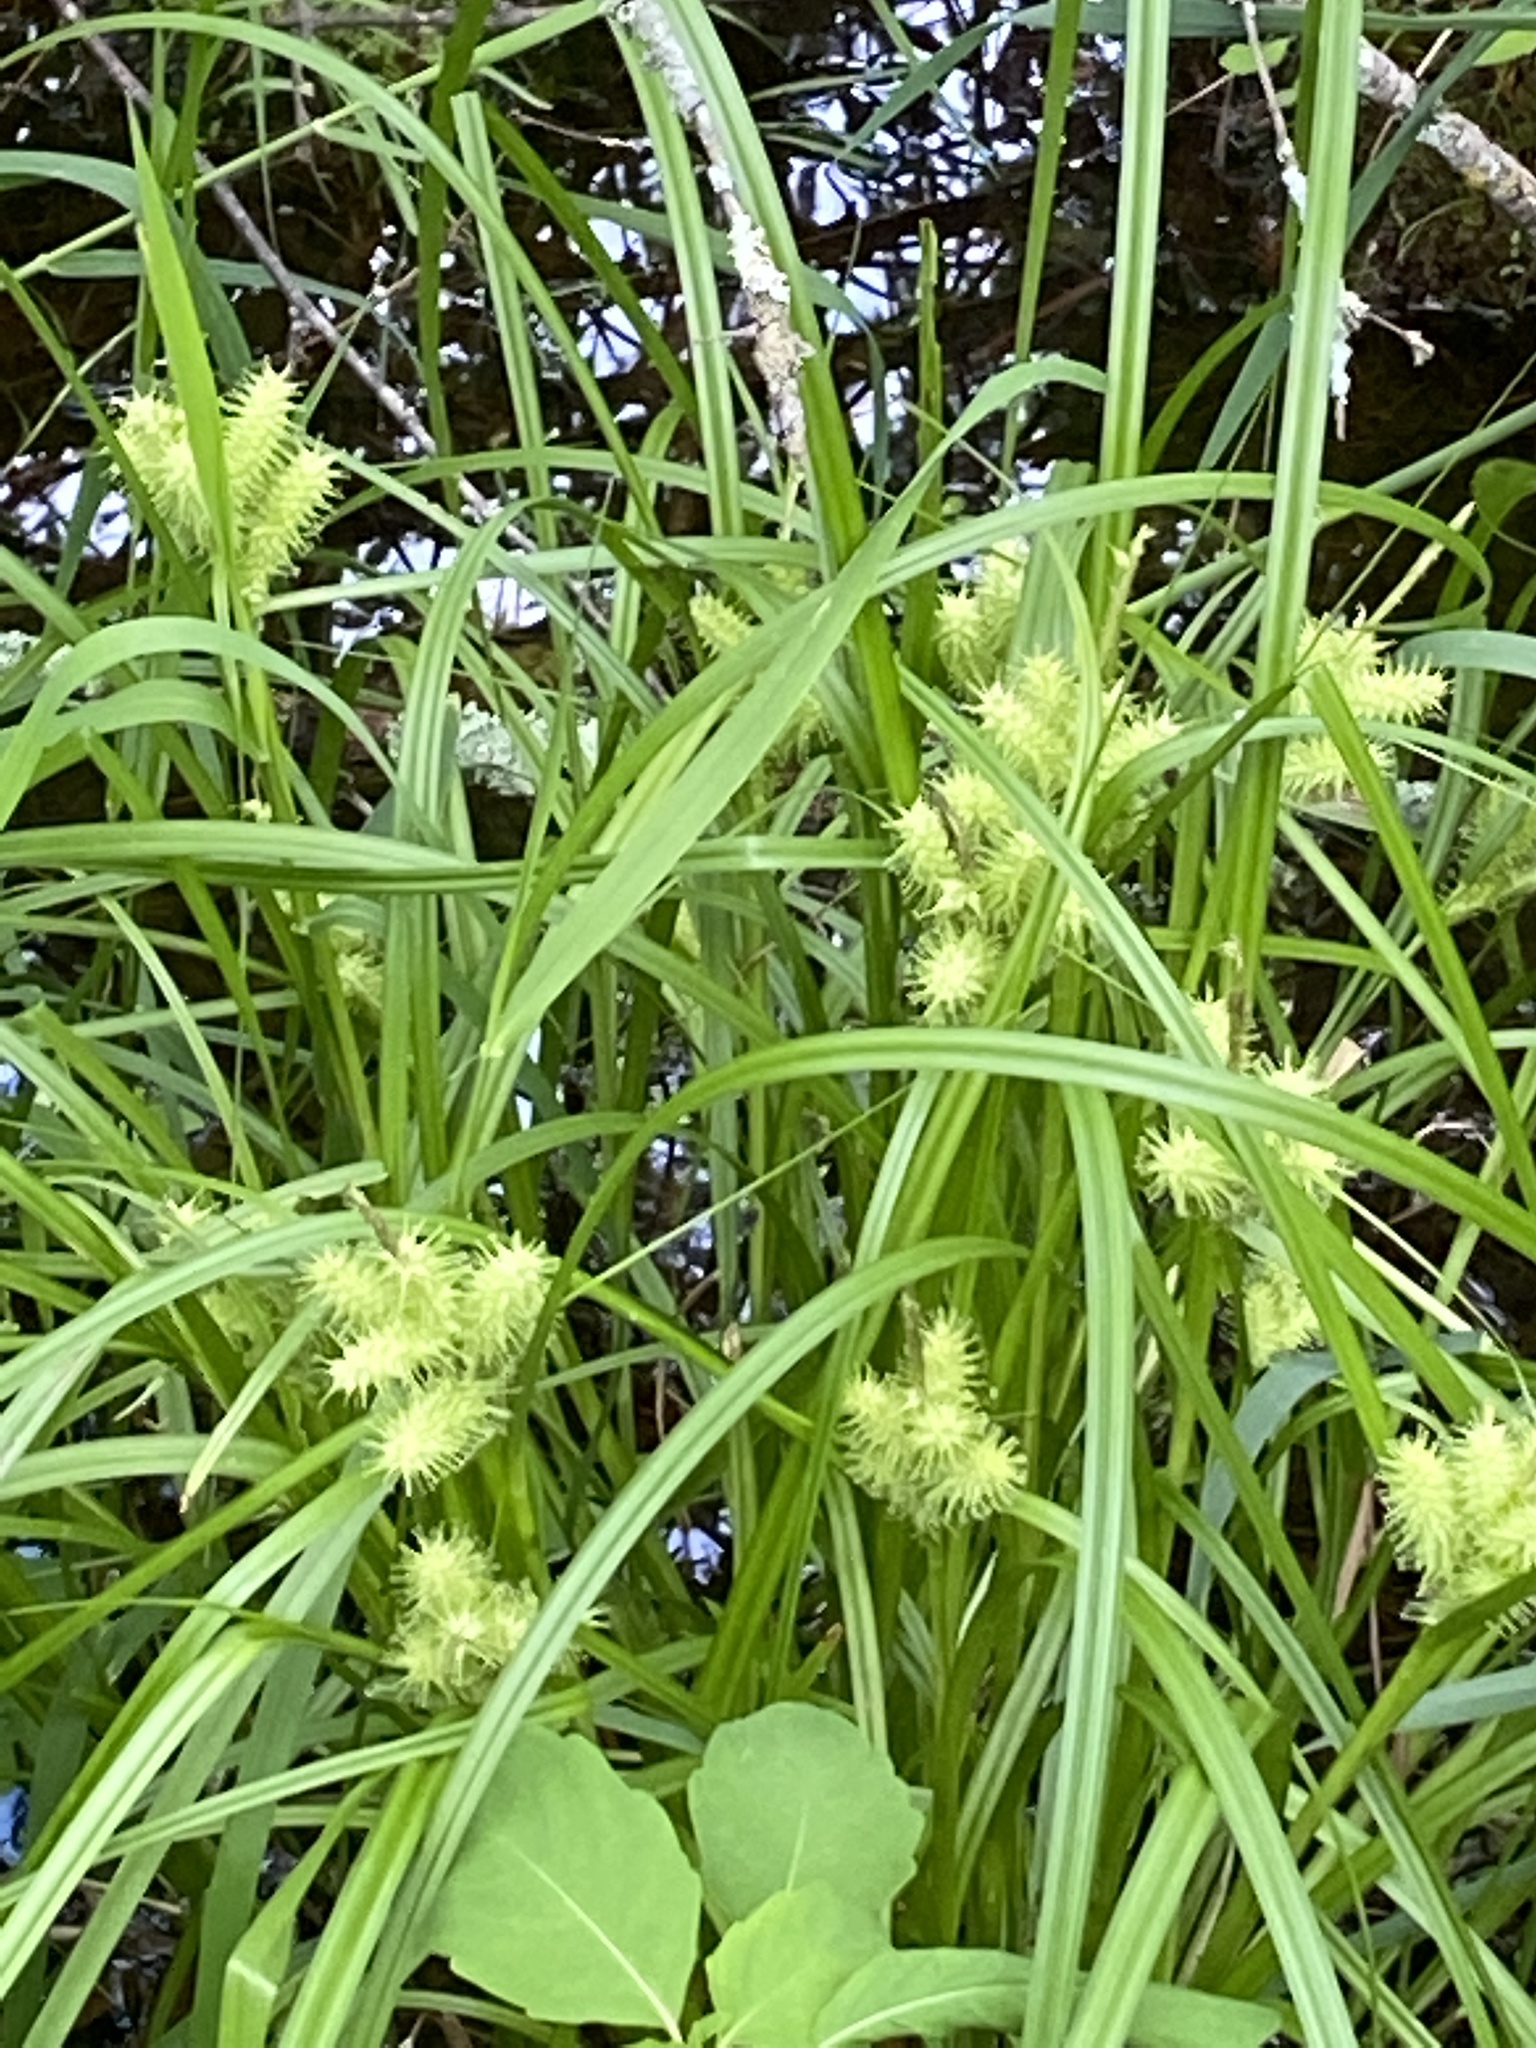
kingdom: Plantae
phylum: Tracheophyta
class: Liliopsida
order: Poales
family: Cyperaceae
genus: Carex
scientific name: Carex retrorsa
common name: Knot-sheath sedge
